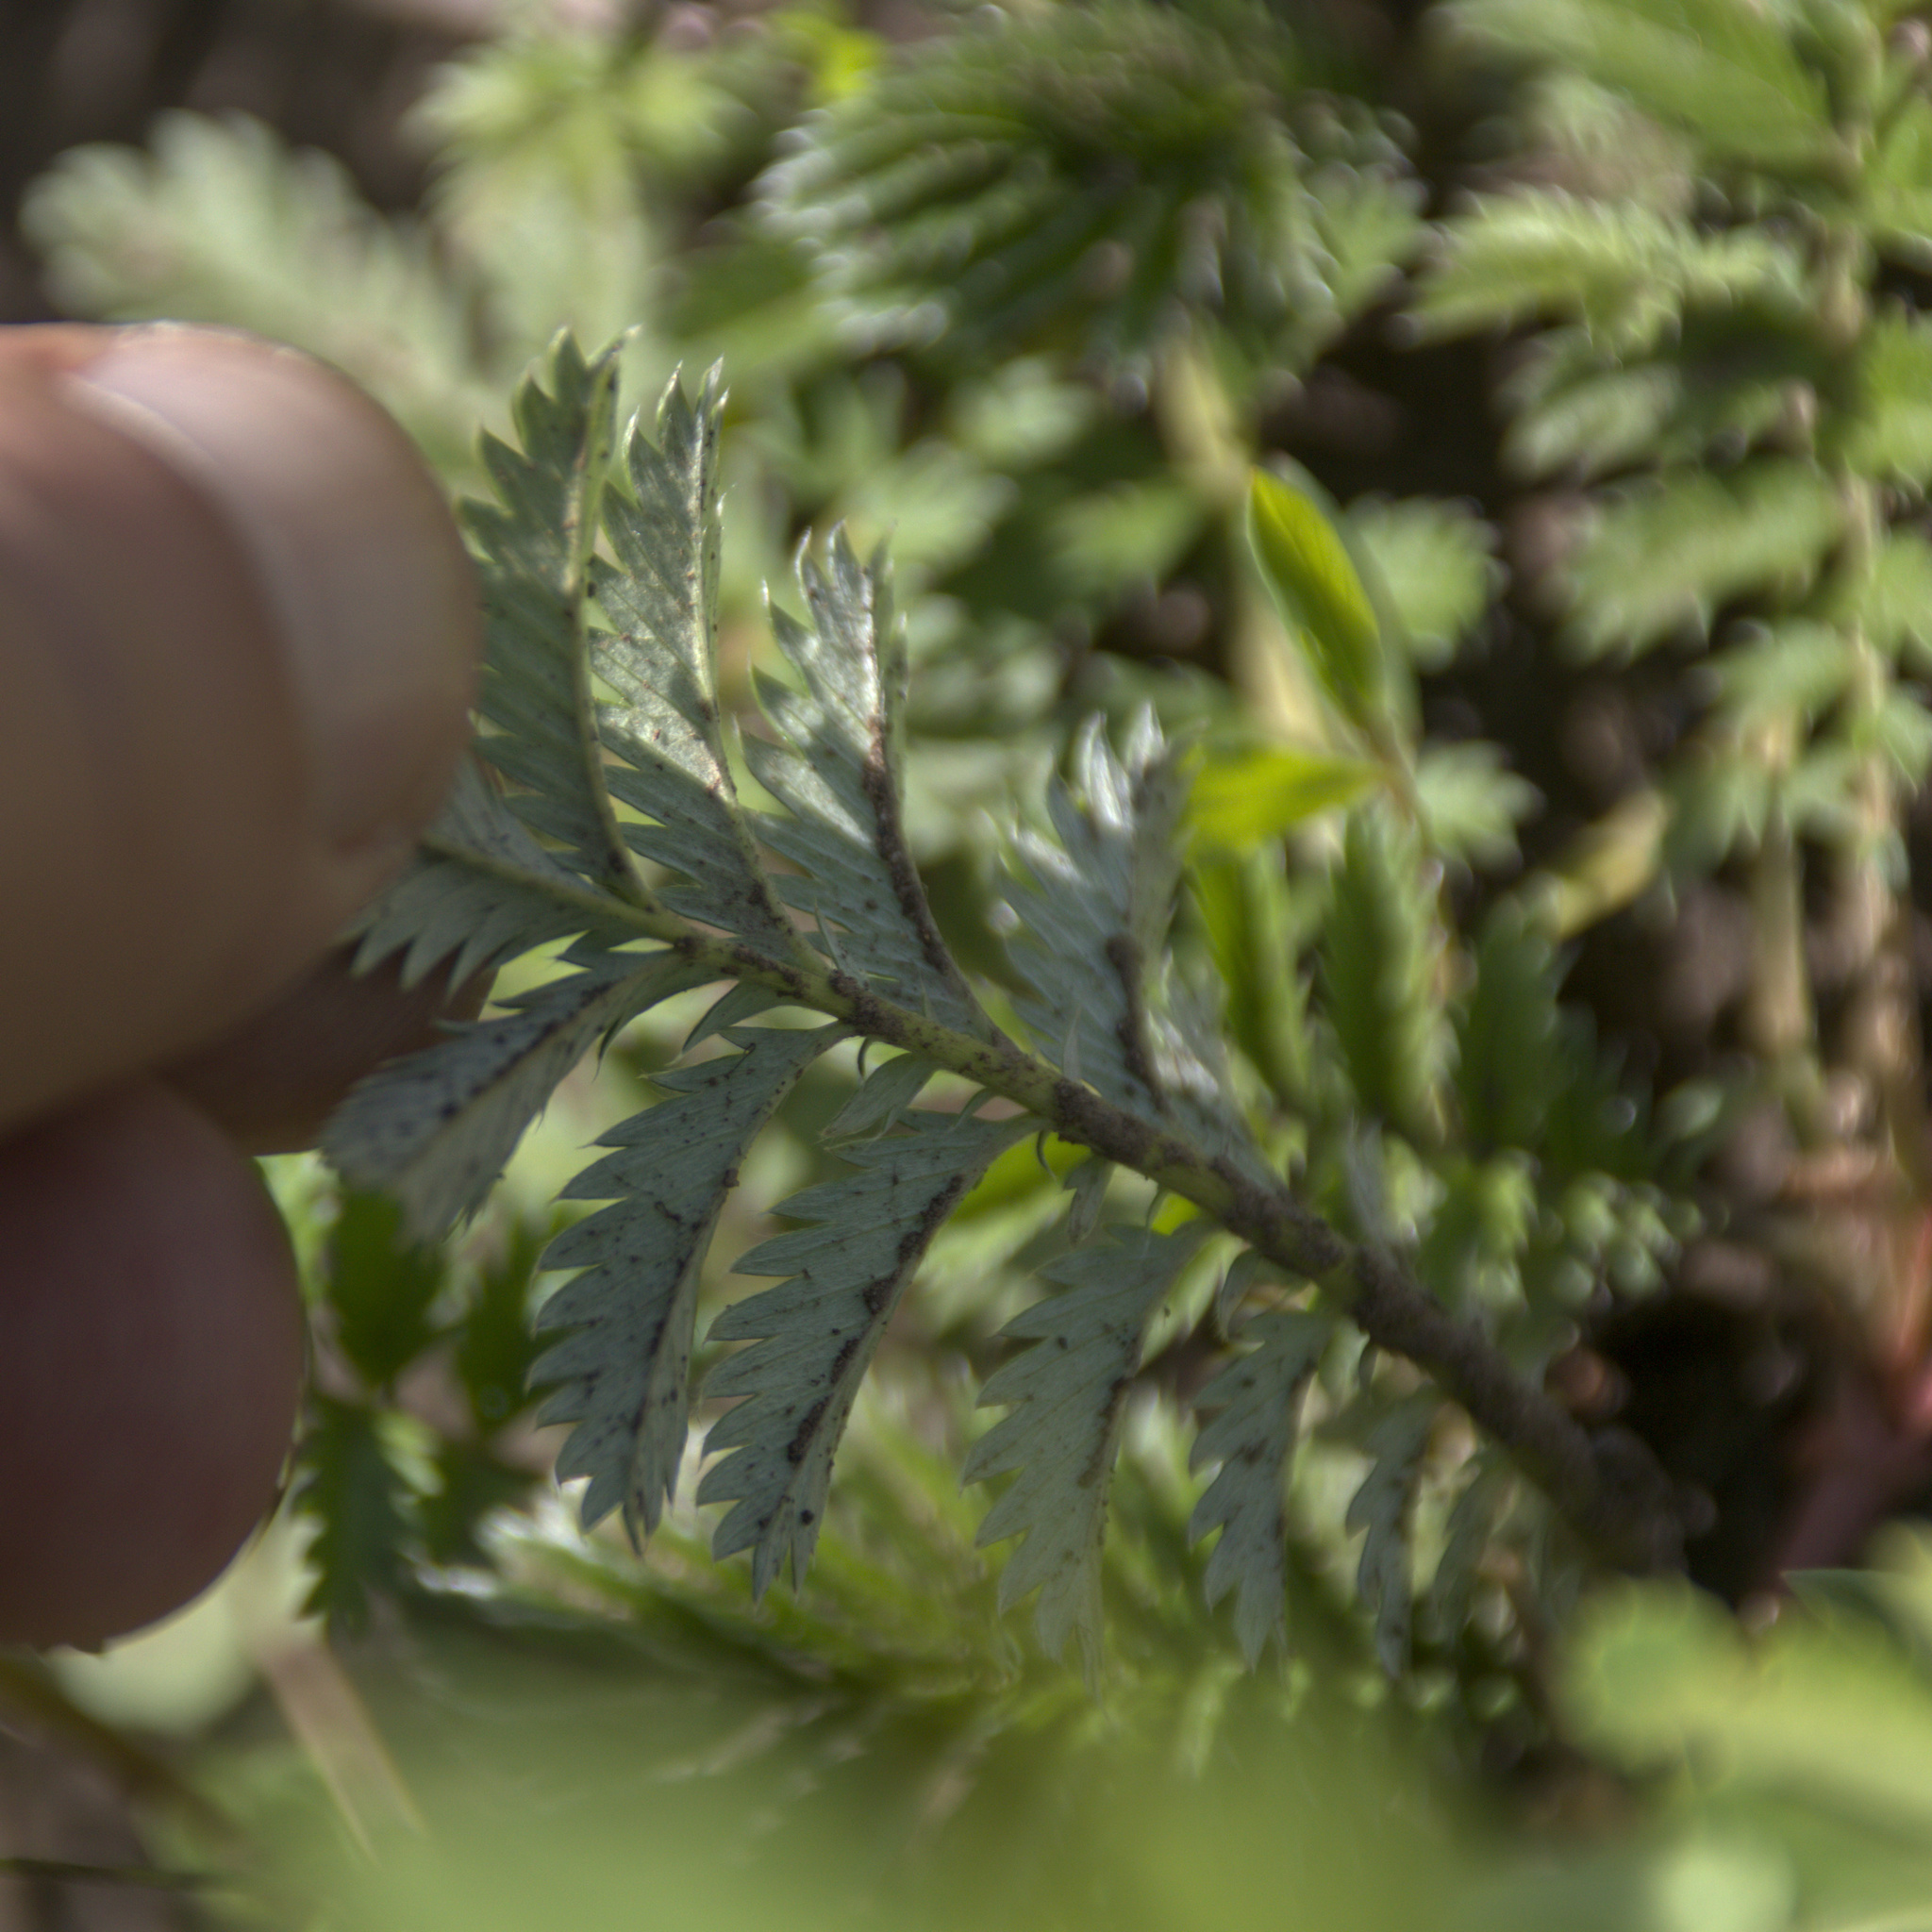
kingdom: Plantae
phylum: Tracheophyta
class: Magnoliopsida
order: Rosales
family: Rosaceae
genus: Argentina
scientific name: Argentina anserina
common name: Common silverweed
